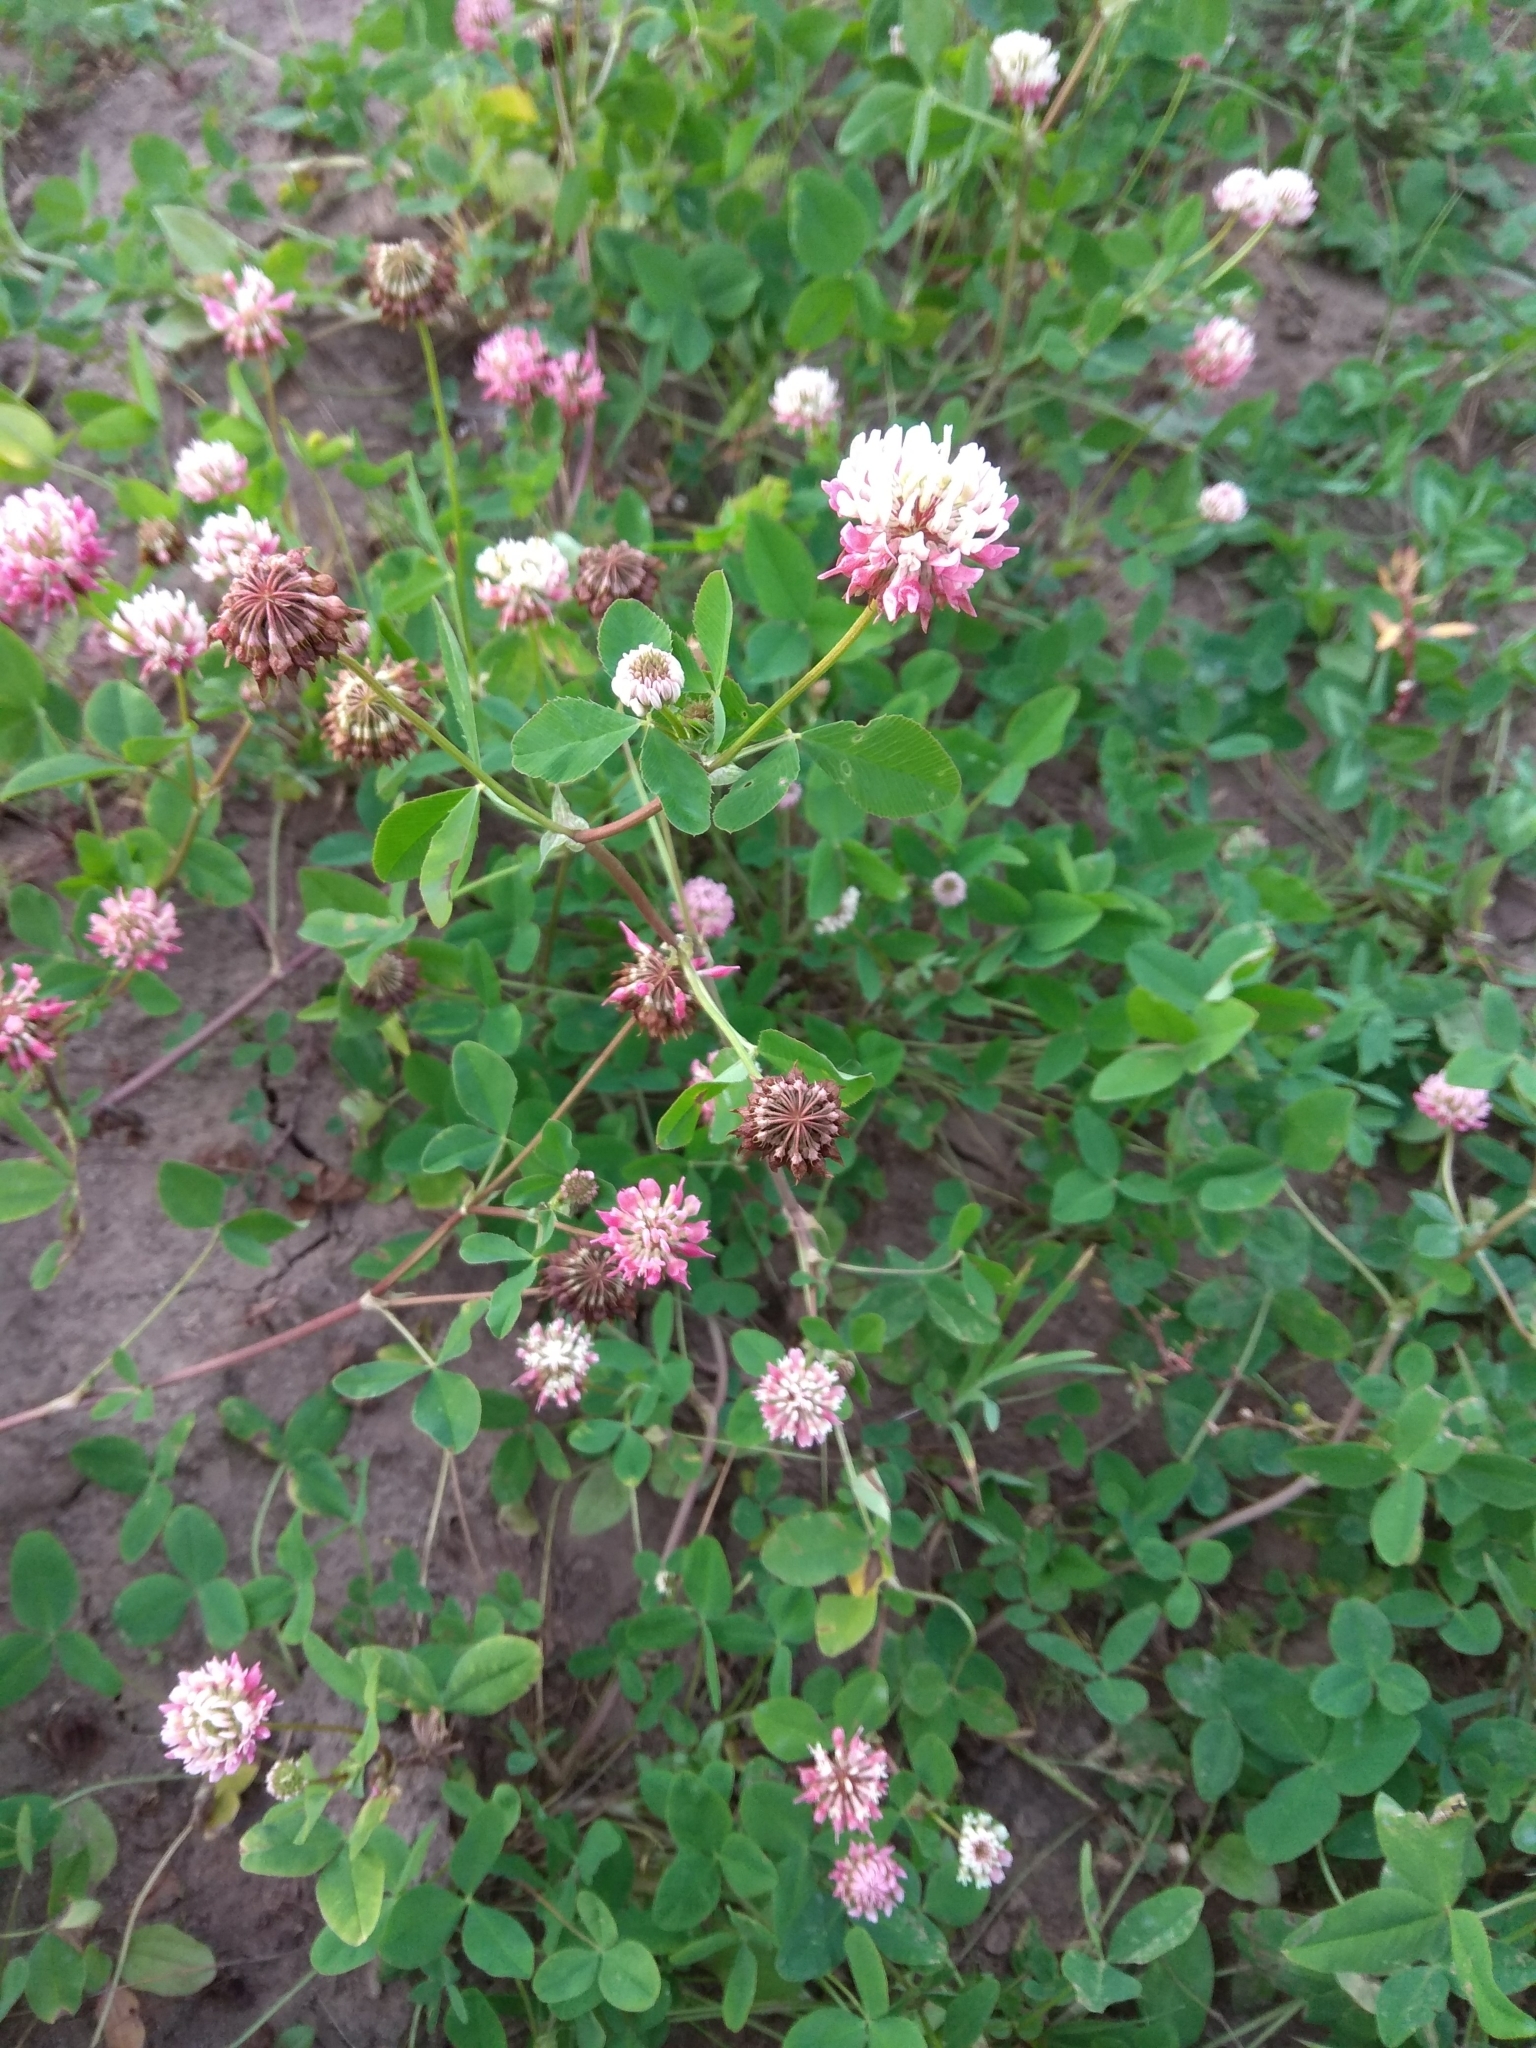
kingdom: Plantae
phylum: Tracheophyta
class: Magnoliopsida
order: Fabales
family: Fabaceae
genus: Trifolium
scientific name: Trifolium hybridum
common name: Alsike clover
